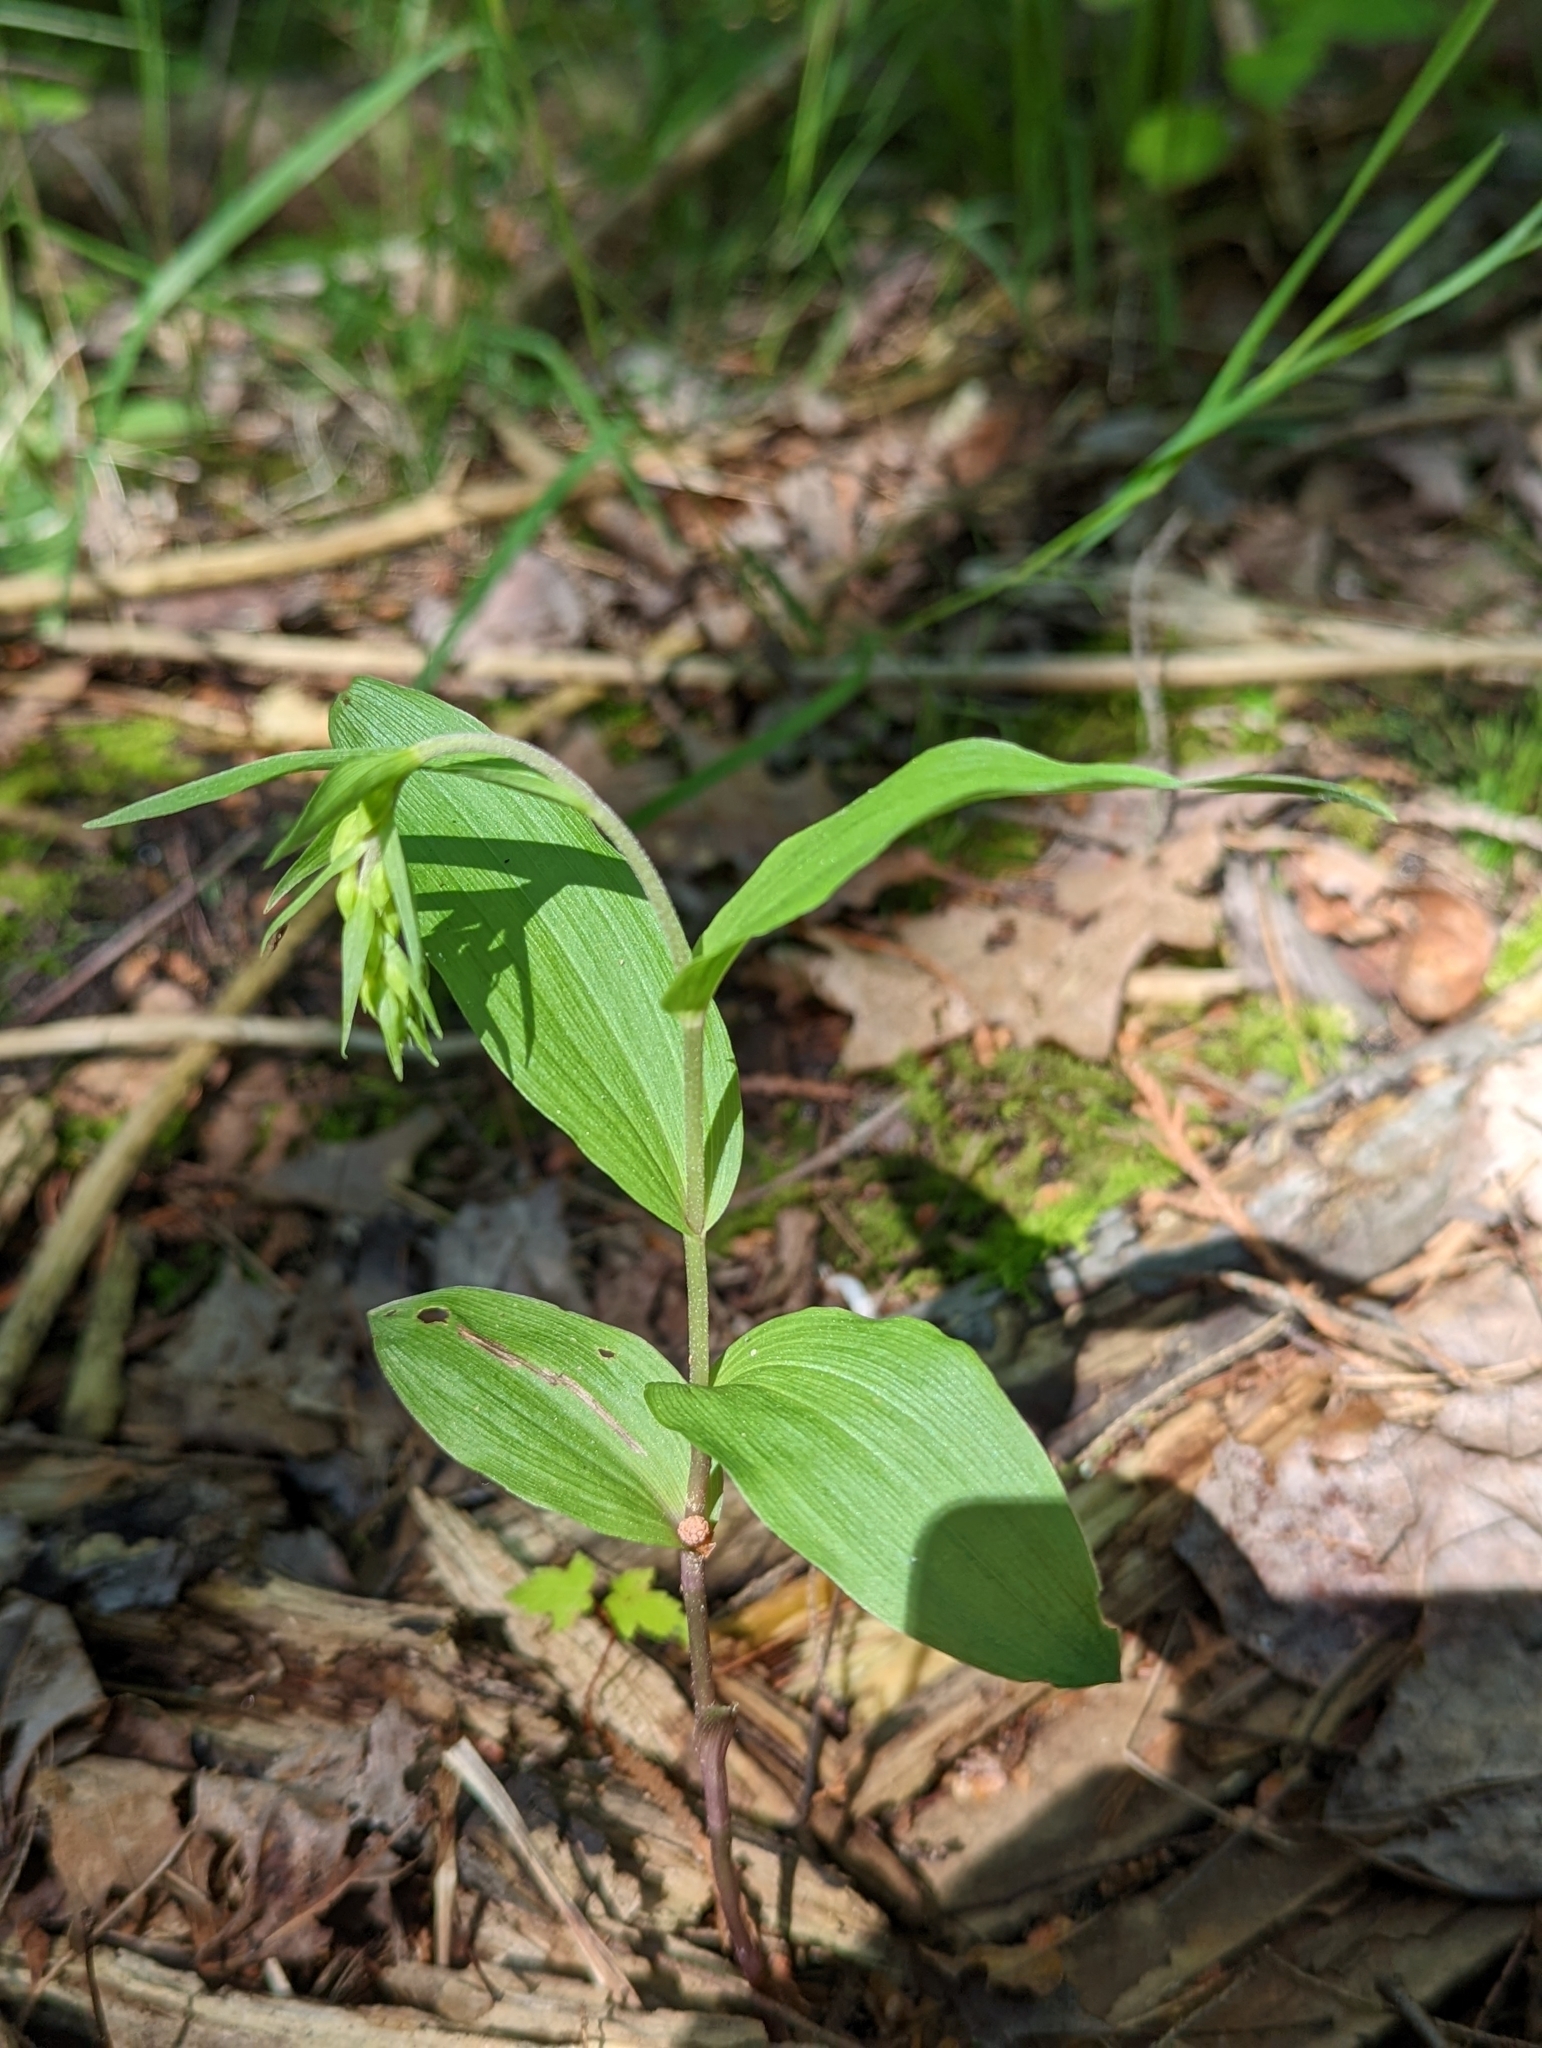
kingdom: Plantae
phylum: Tracheophyta
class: Liliopsida
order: Asparagales
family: Orchidaceae
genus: Epipactis
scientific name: Epipactis helleborine
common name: Broad-leaved helleborine
